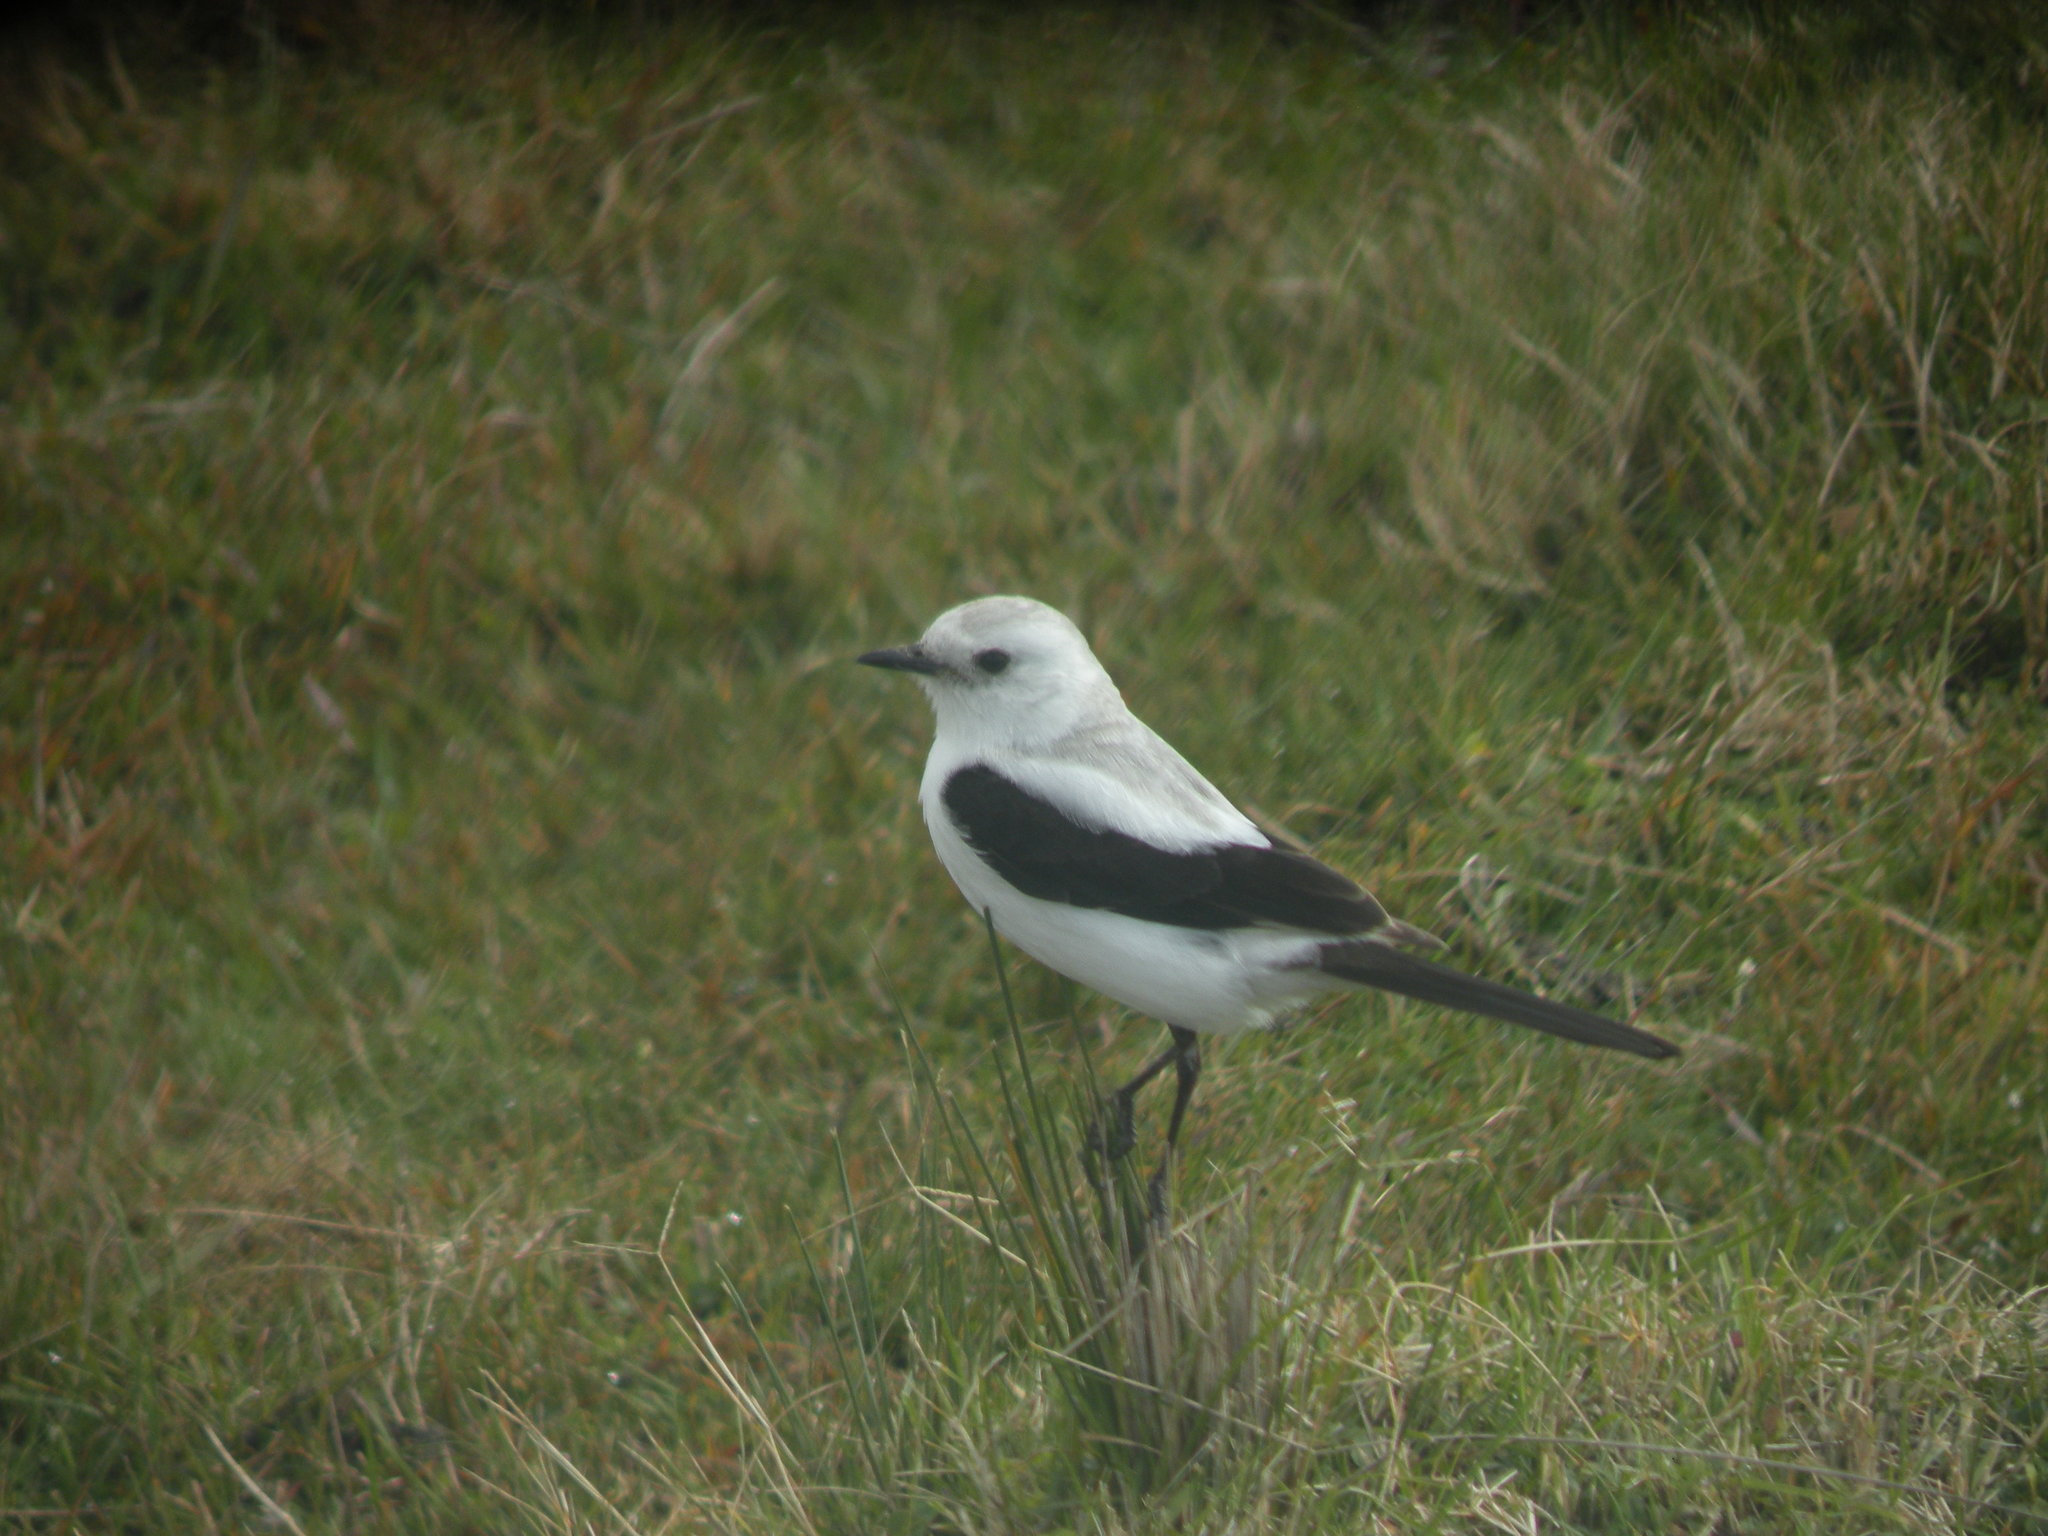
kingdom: Animalia
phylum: Chordata
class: Aves
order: Passeriformes
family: Tyrannidae
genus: Heteroxolmis
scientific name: Heteroxolmis dominicana
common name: Black-and-white monjita
